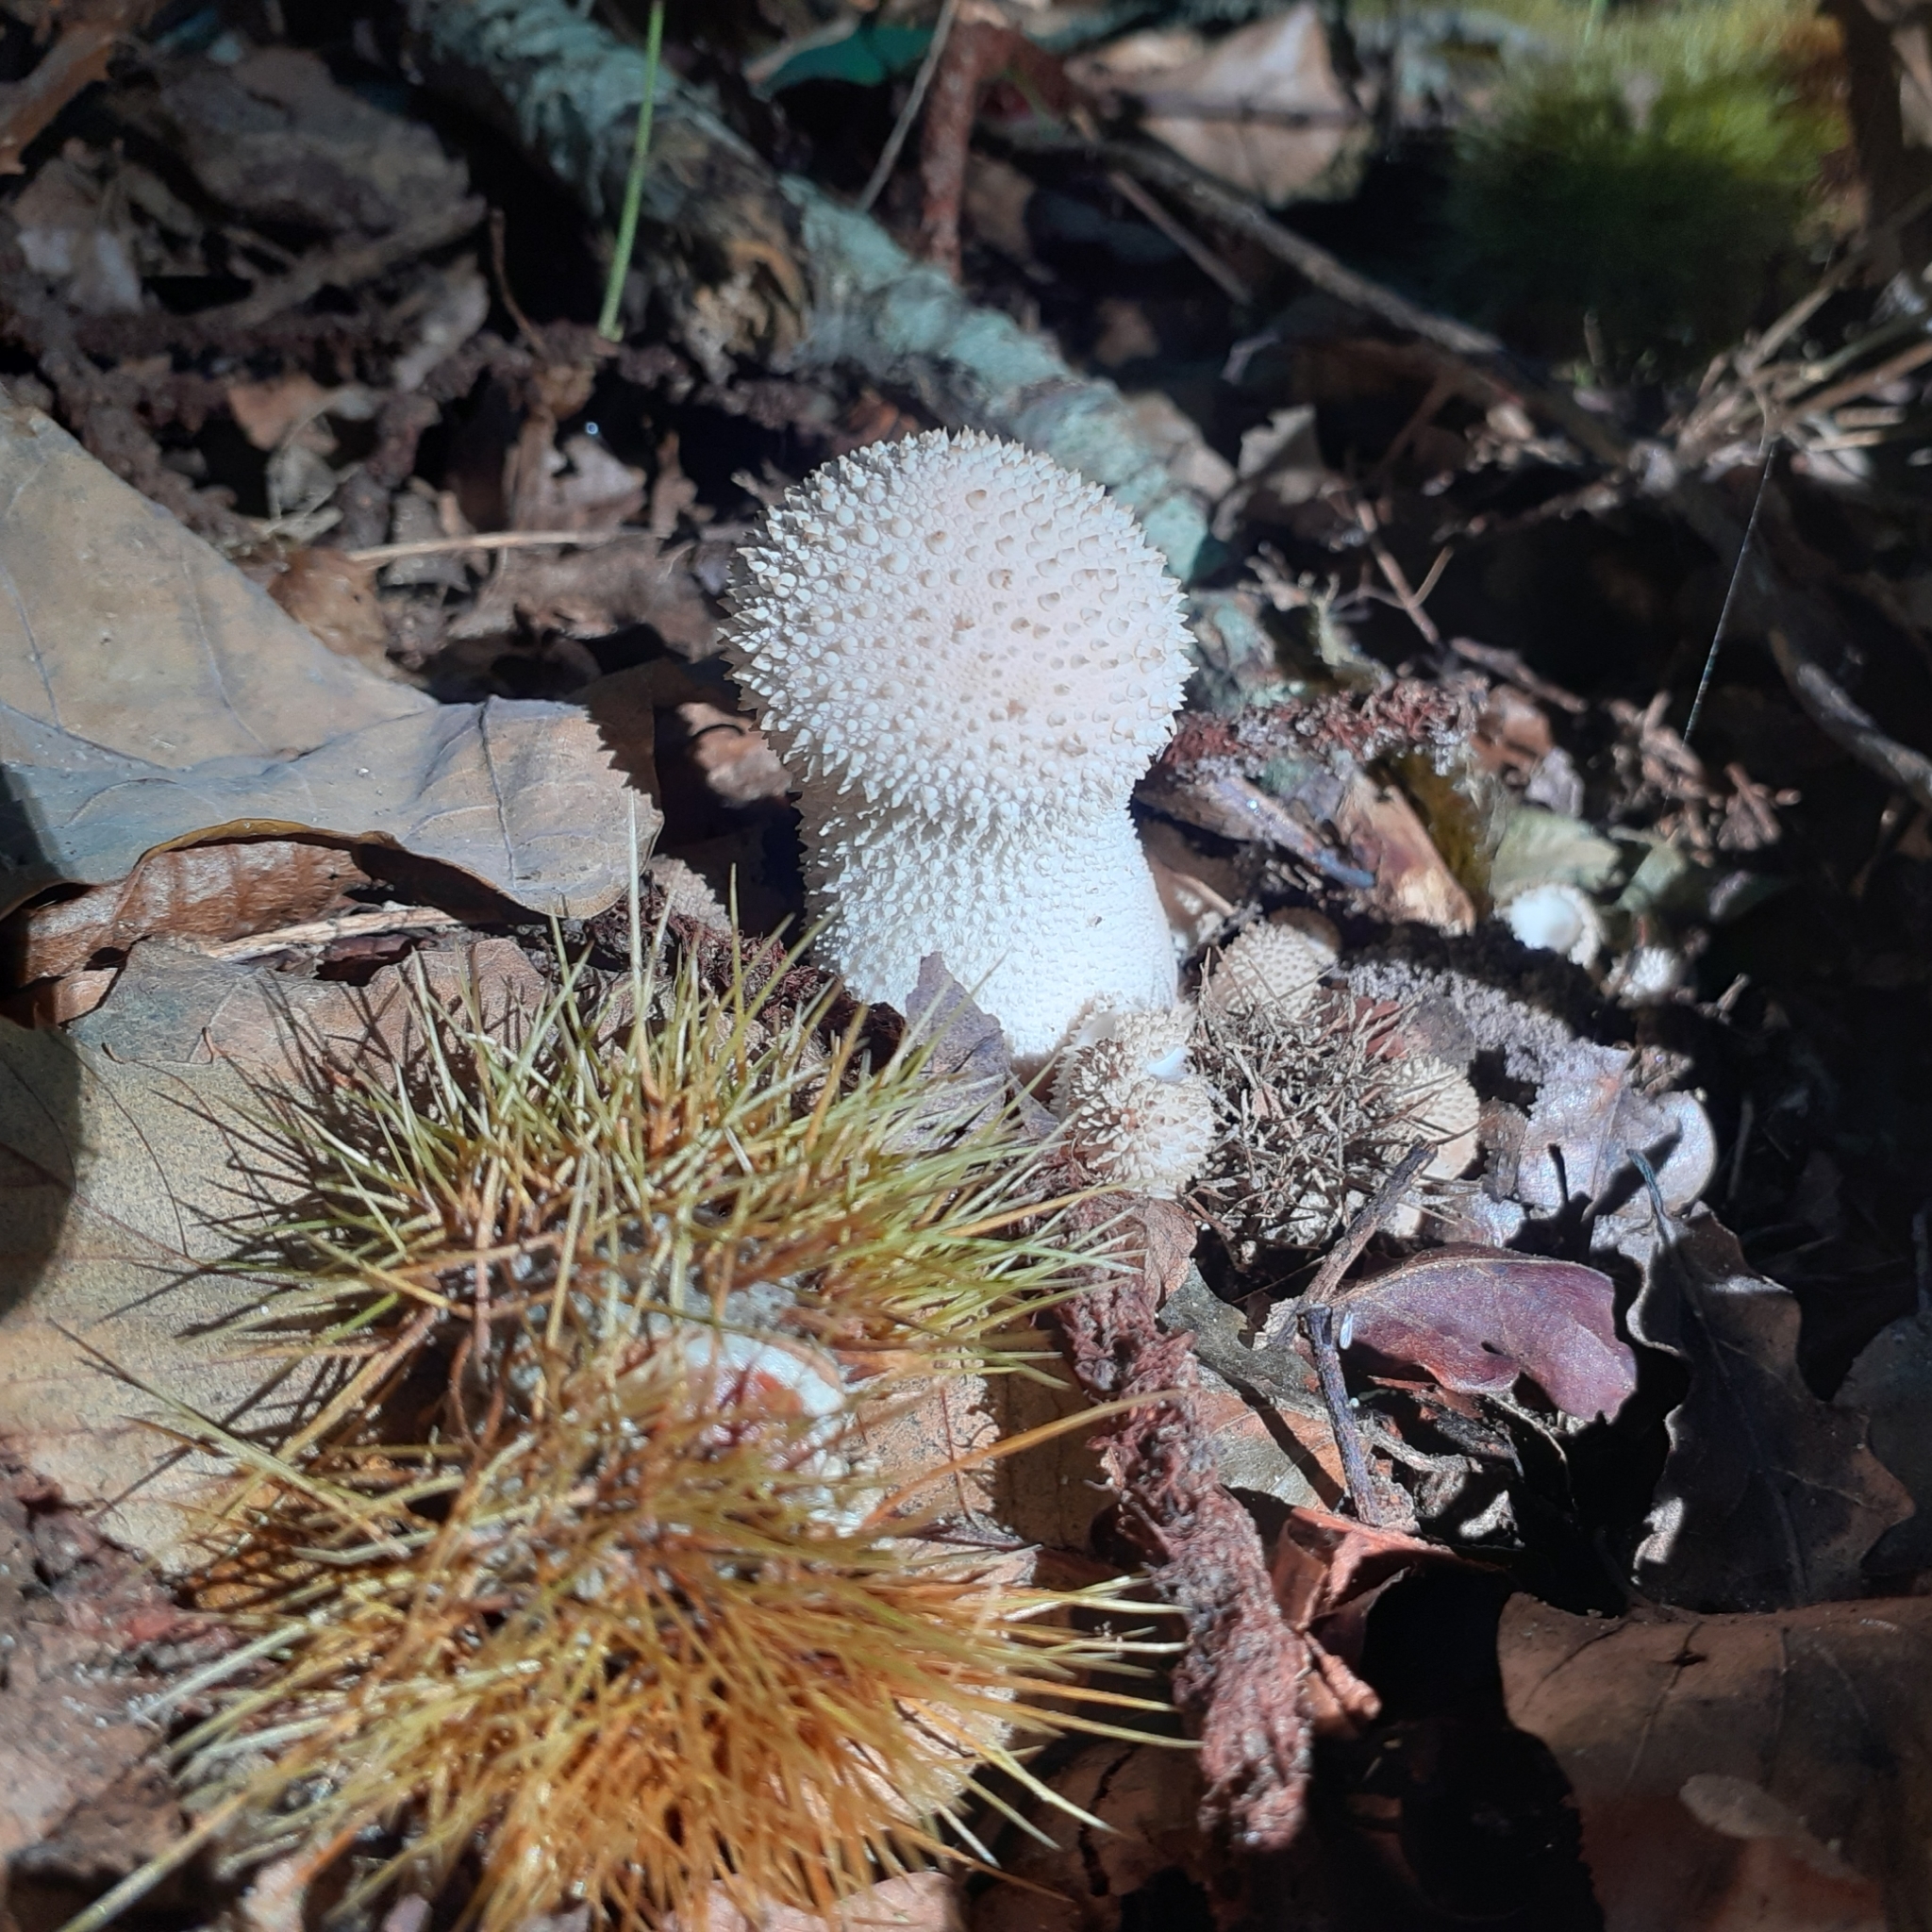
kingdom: Fungi
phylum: Basidiomycota
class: Agaricomycetes
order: Agaricales
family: Lycoperdaceae
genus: Lycoperdon
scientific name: Lycoperdon perlatum
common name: Common puffball
